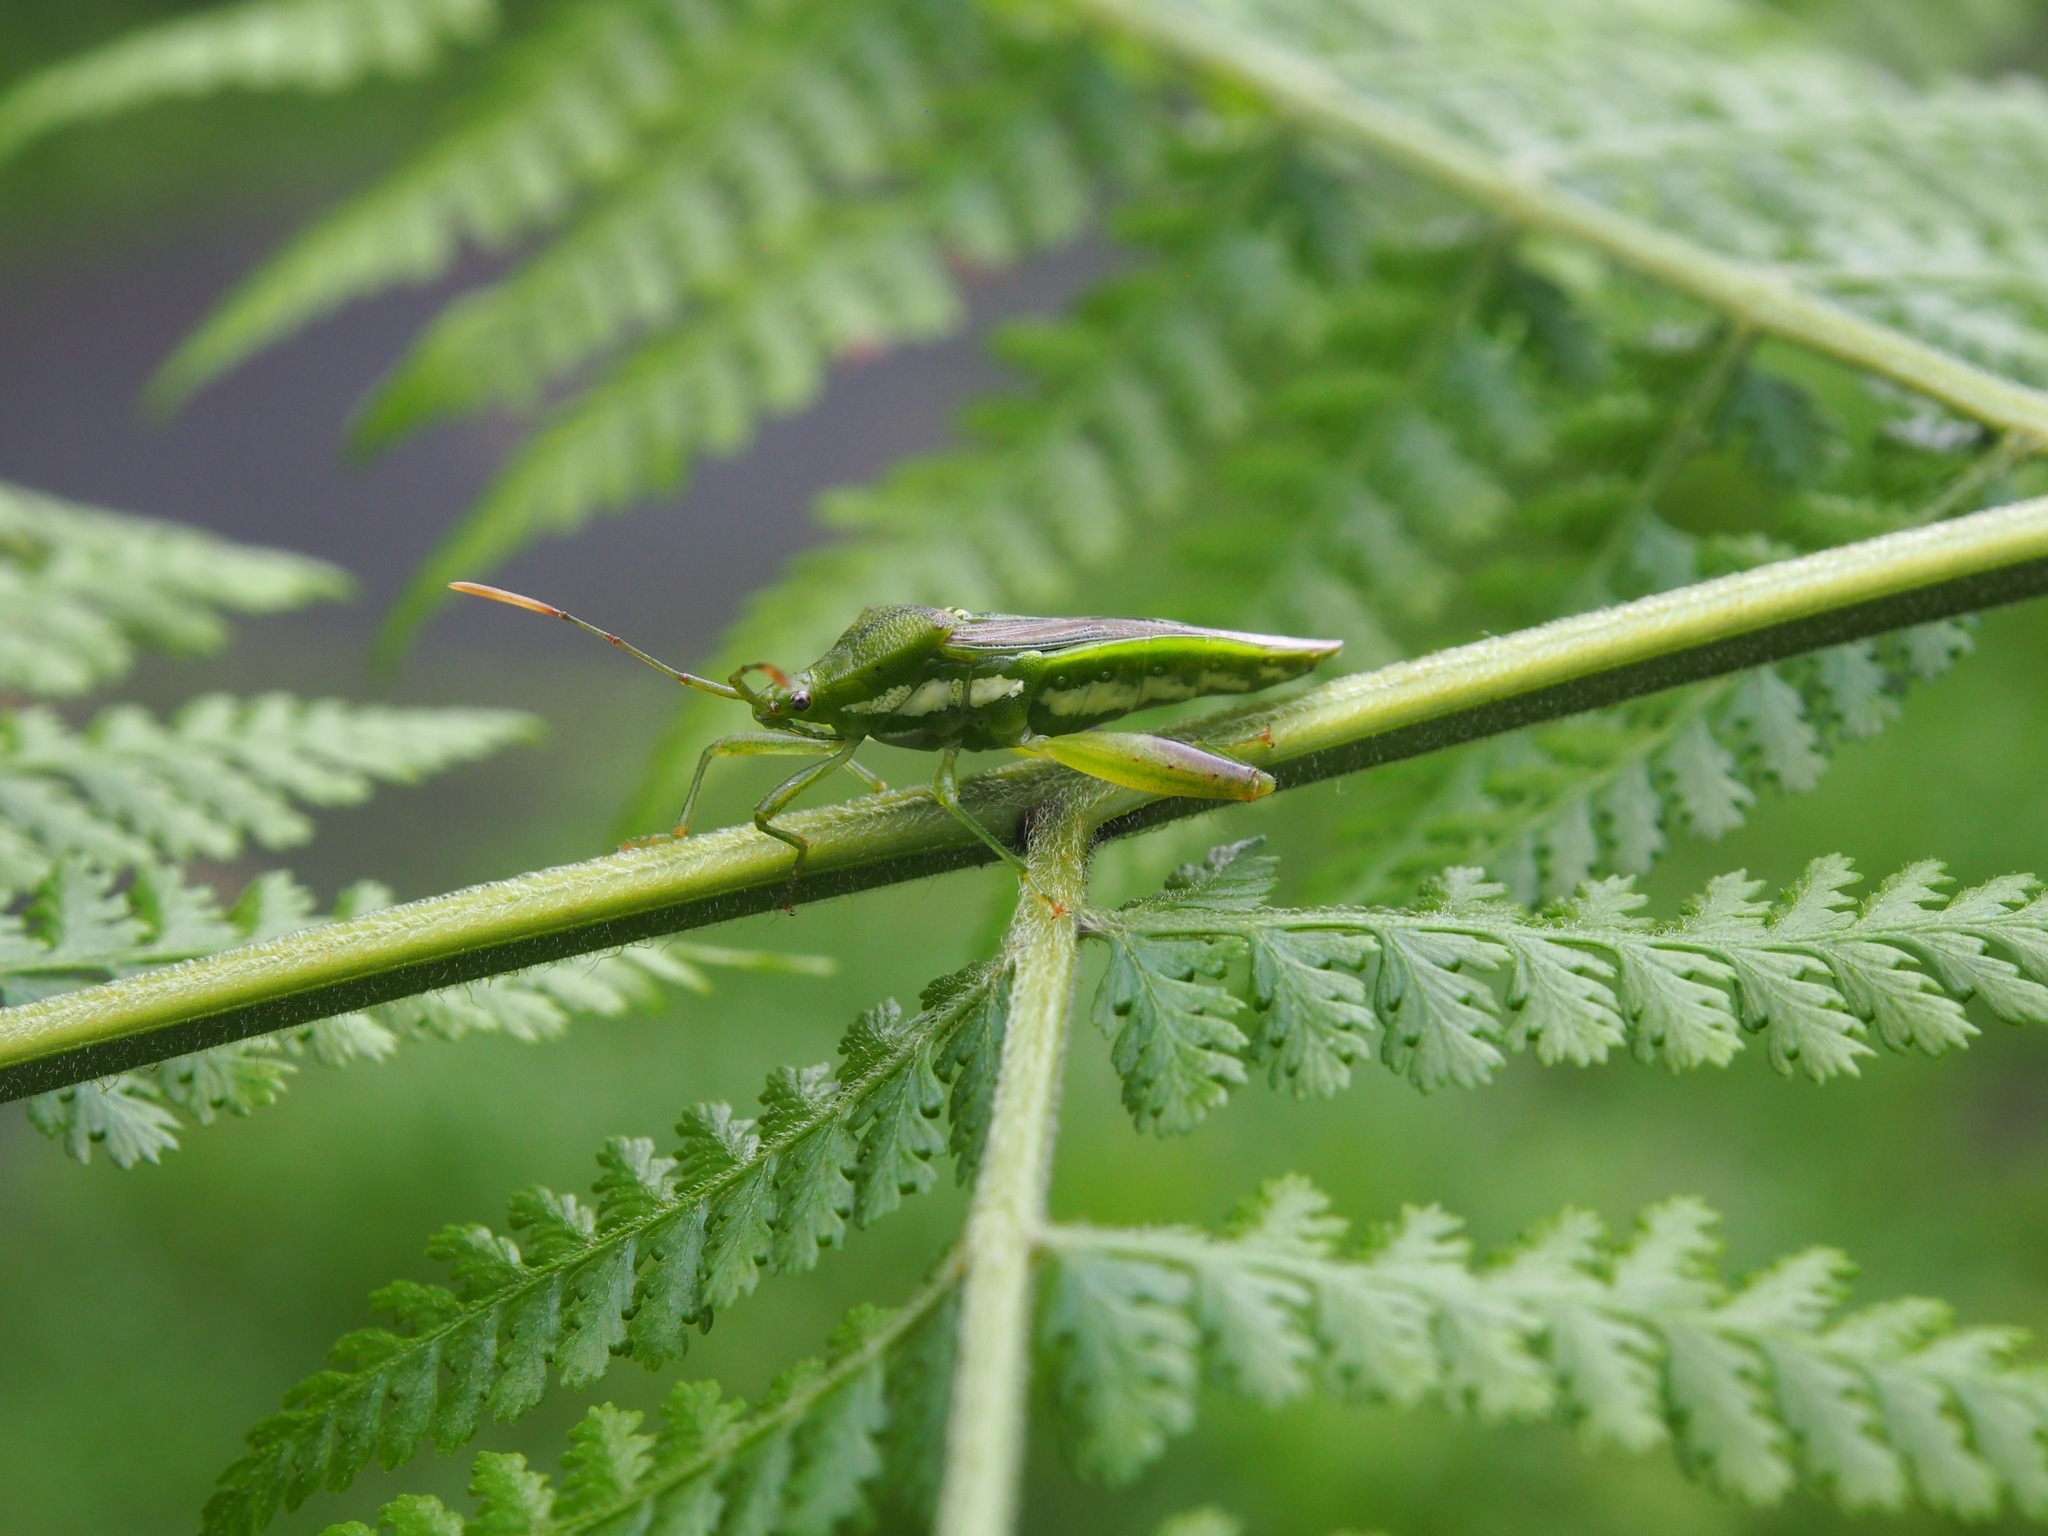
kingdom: Animalia
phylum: Arthropoda
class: Insecta
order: Hemiptera
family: Coreidae
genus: Lycambes
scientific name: Lycambes sargi
